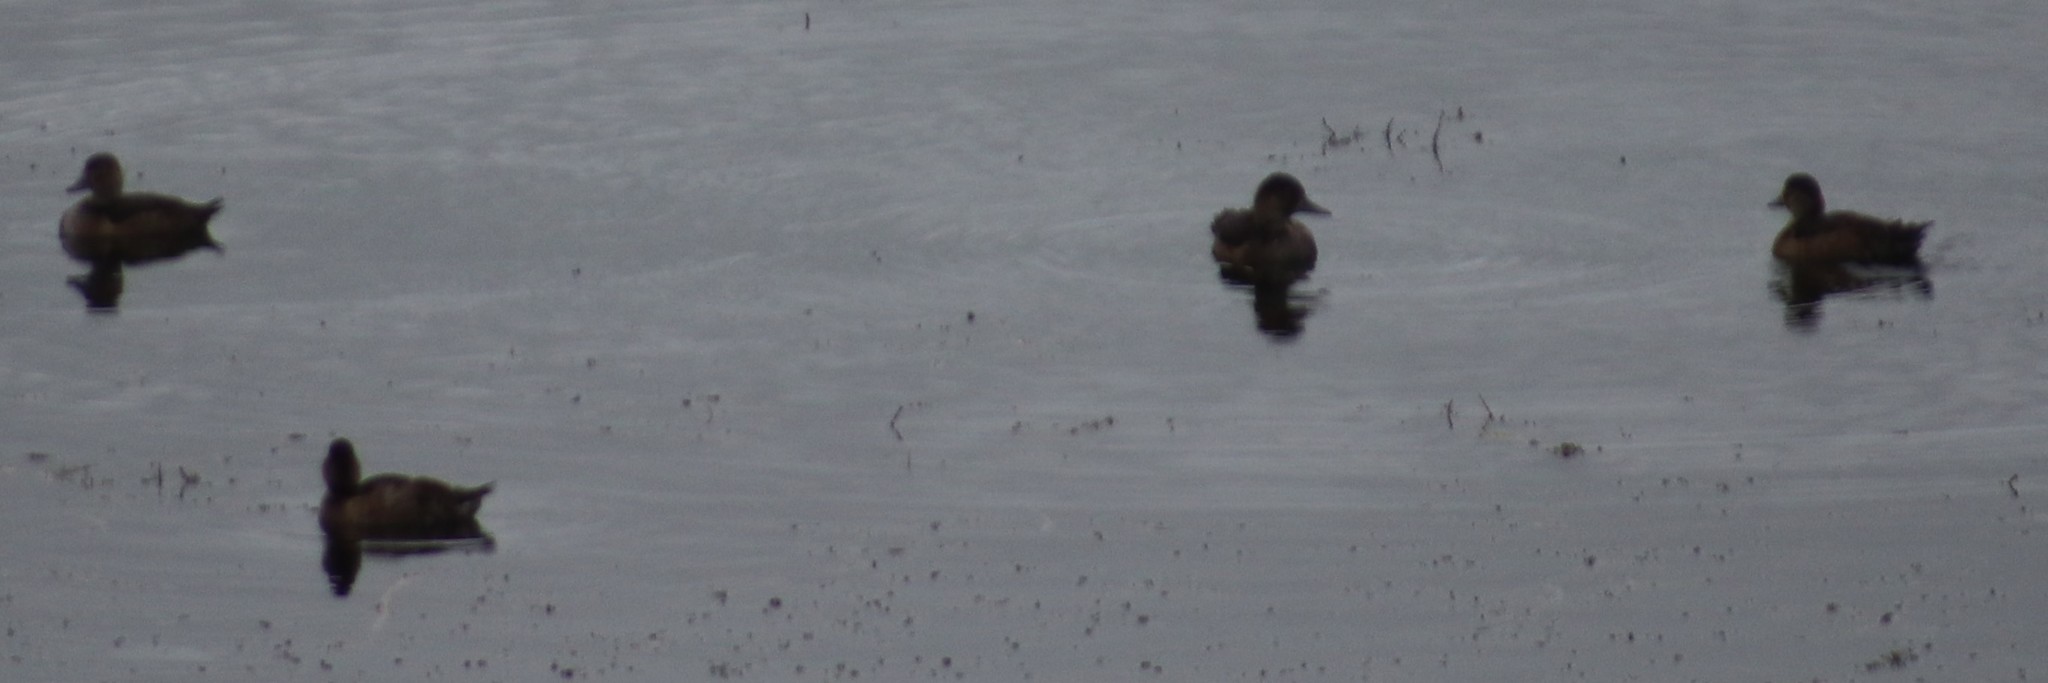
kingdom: Animalia
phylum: Chordata
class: Aves
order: Anseriformes
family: Anatidae
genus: Aythya
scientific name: Aythya collaris
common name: Ring-necked duck
